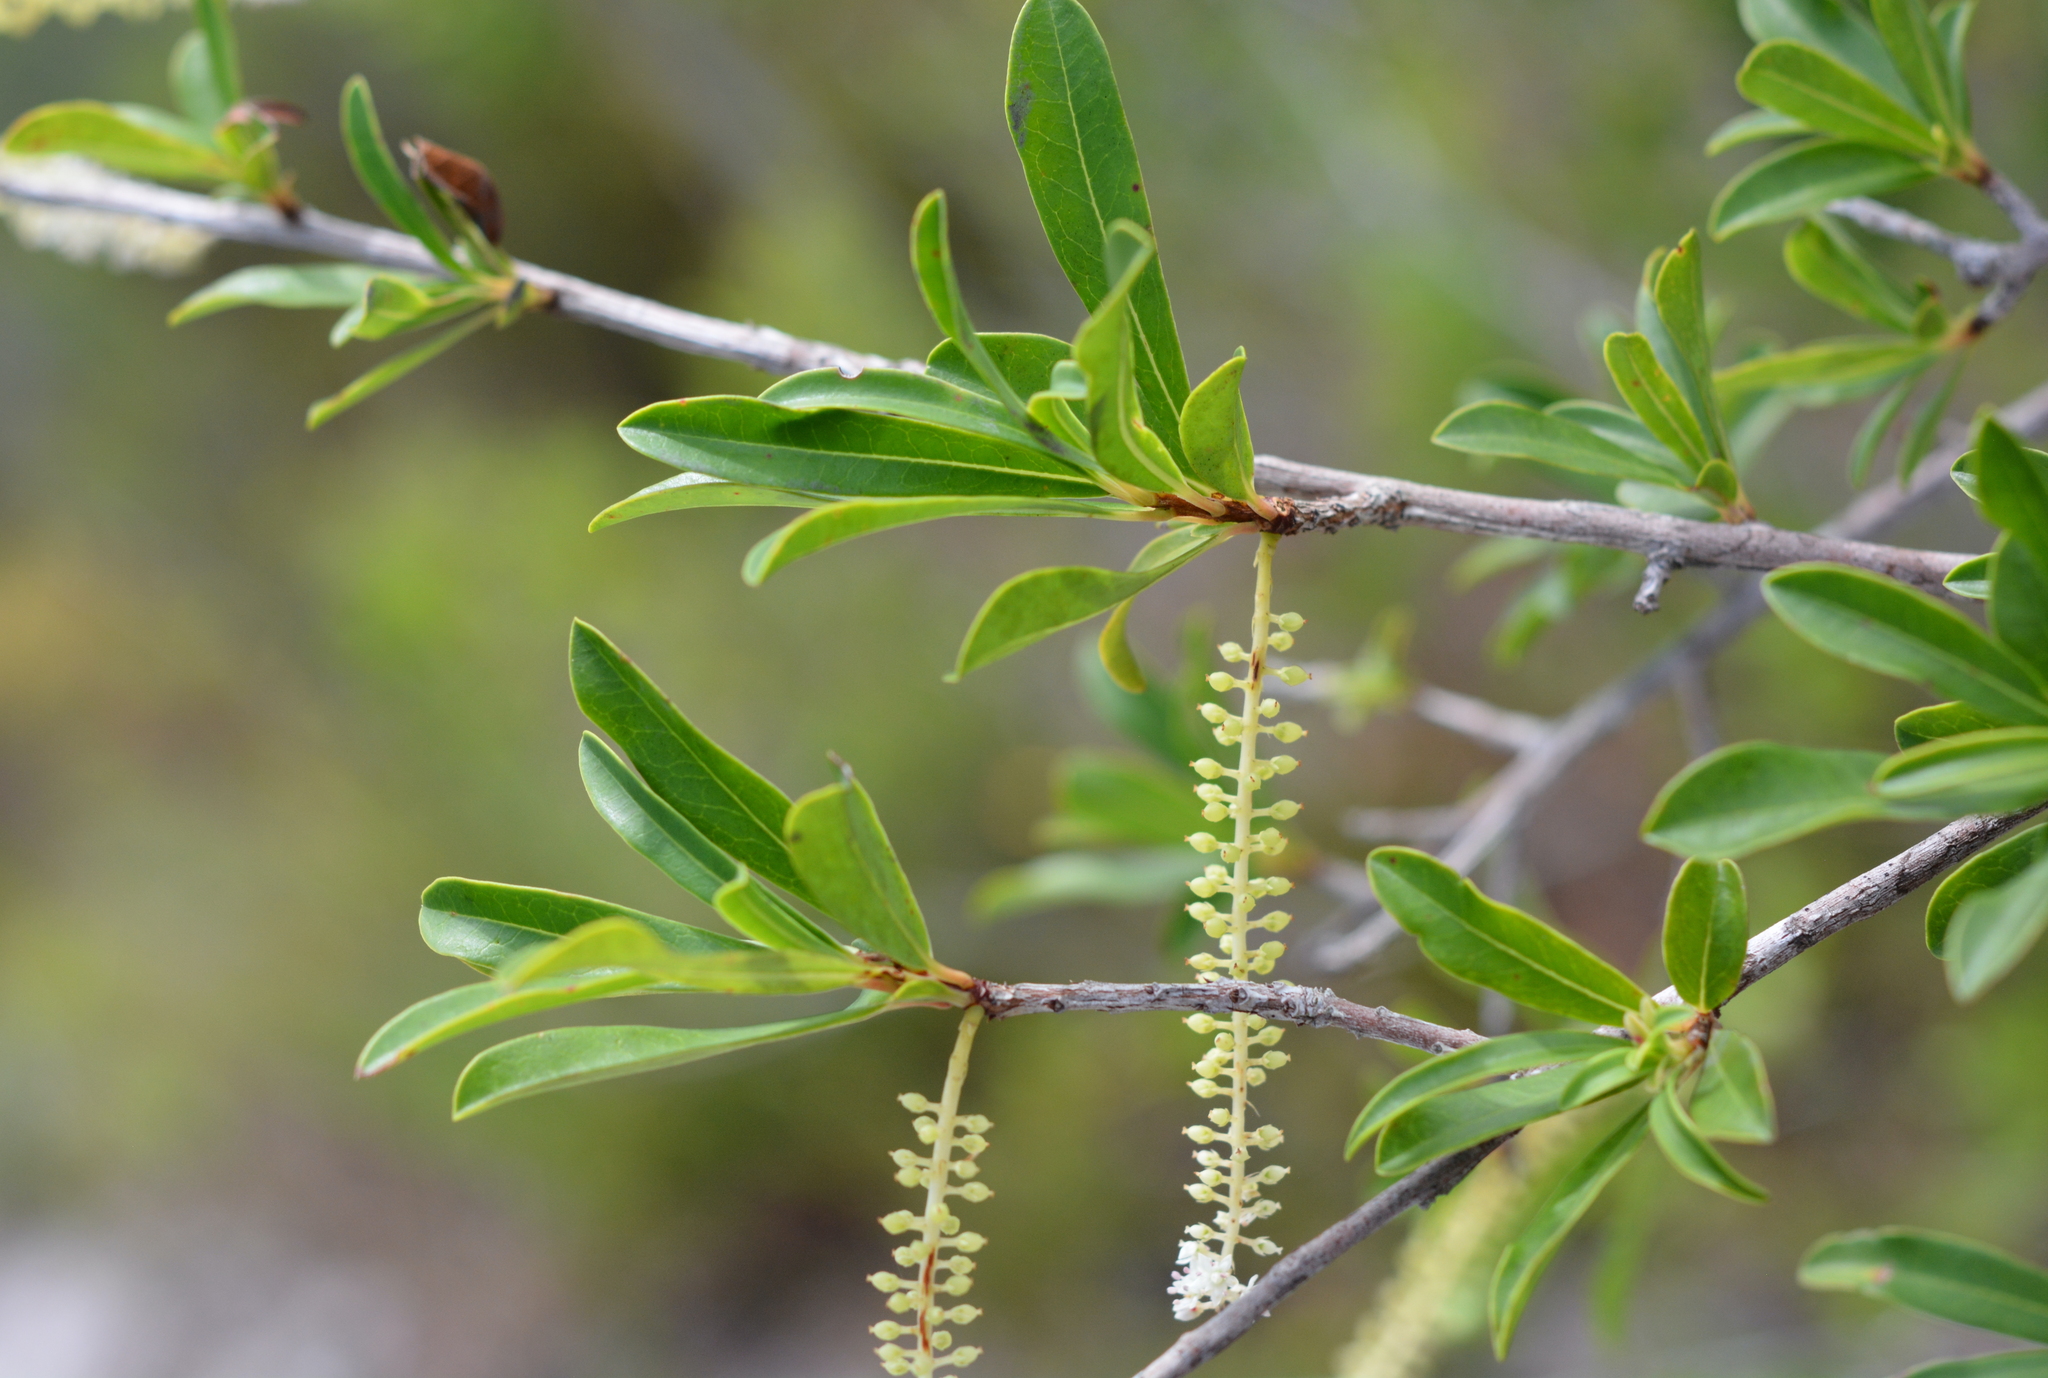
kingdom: Plantae
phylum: Tracheophyta
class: Magnoliopsida
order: Ericales
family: Cyrillaceae
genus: Cyrilla
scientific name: Cyrilla racemiflora
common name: Black titi
